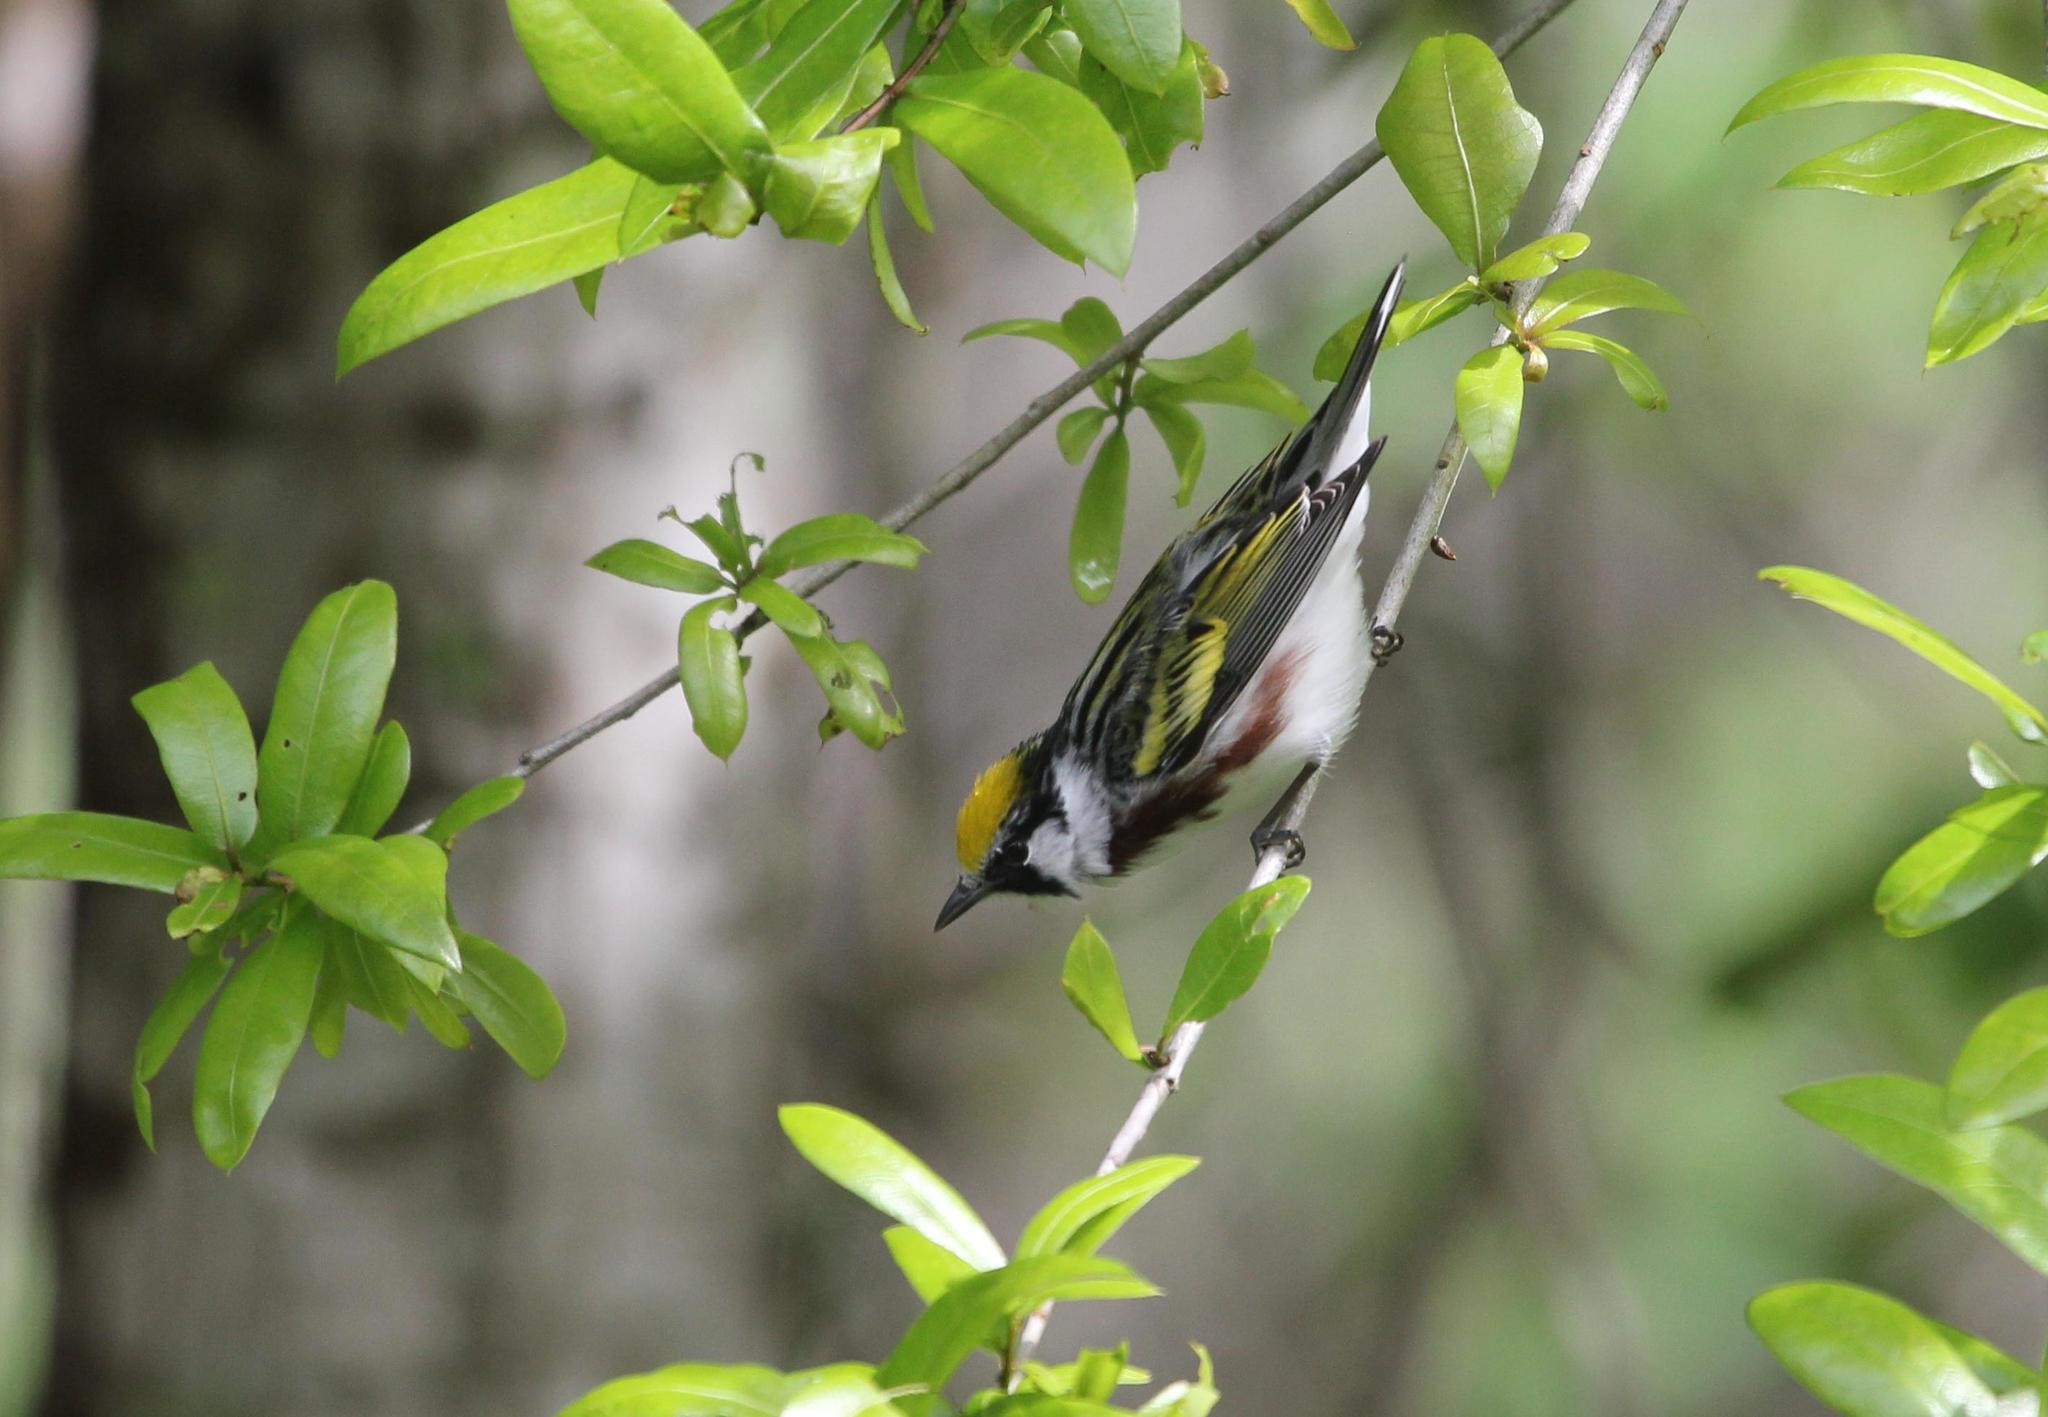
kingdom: Animalia
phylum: Chordata
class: Aves
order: Passeriformes
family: Parulidae
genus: Setophaga
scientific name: Setophaga pensylvanica
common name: Chestnut-sided warbler
